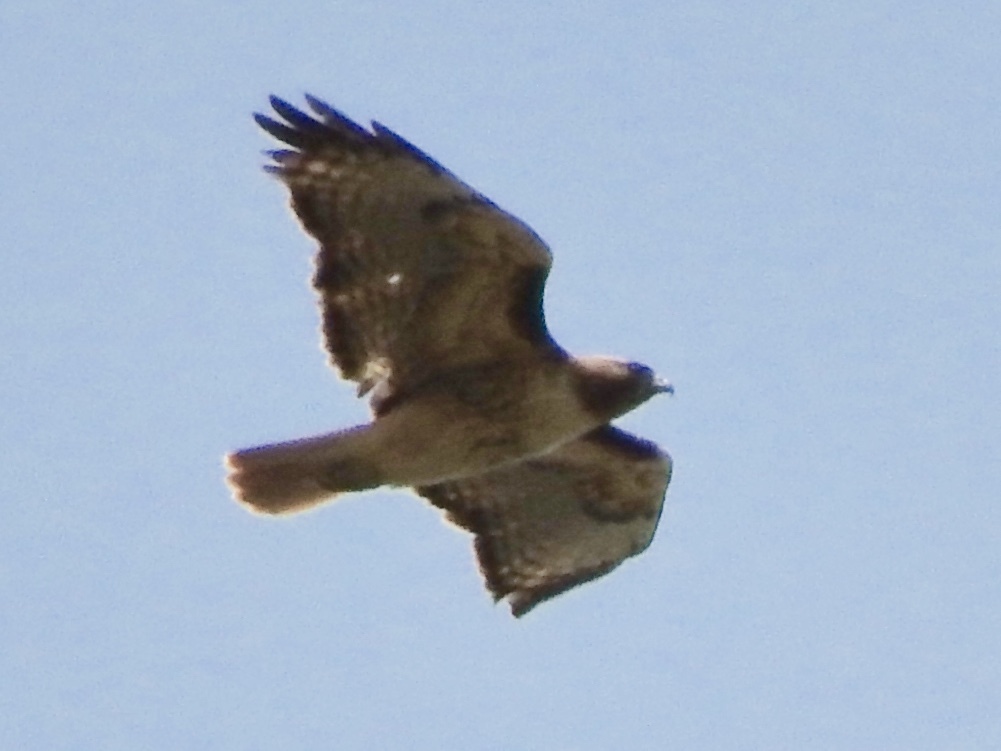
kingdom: Animalia
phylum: Chordata
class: Aves
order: Accipitriformes
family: Accipitridae
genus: Buteo
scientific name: Buteo jamaicensis
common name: Red-tailed hawk
